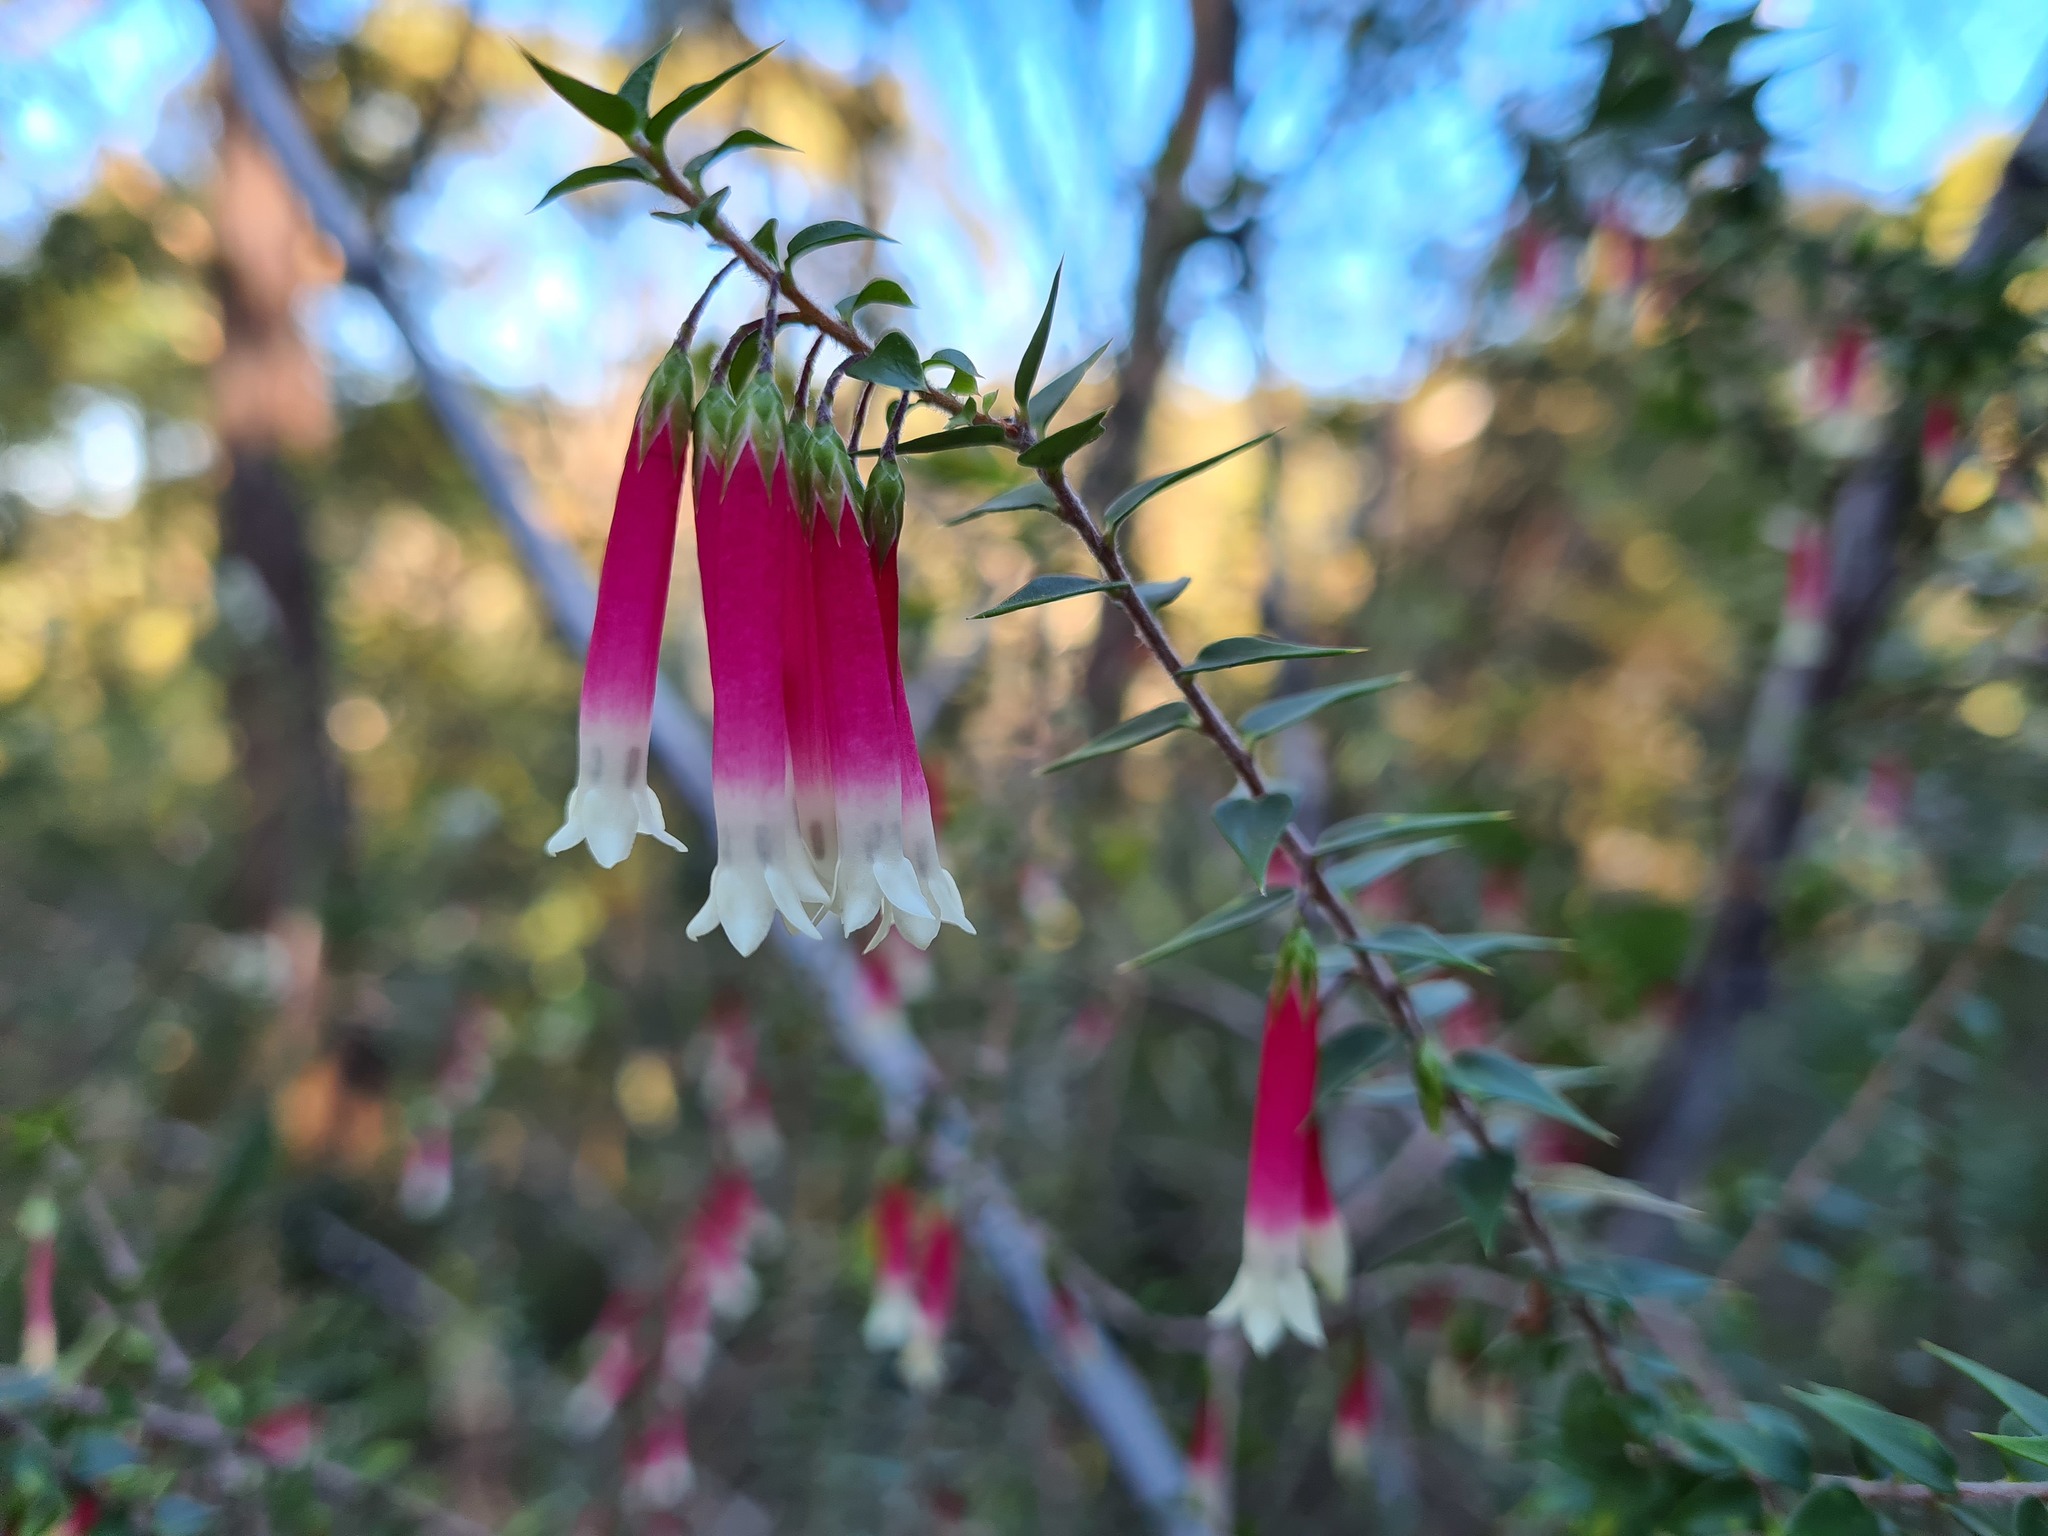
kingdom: Plantae
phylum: Tracheophyta
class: Magnoliopsida
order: Ericales
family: Ericaceae
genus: Epacris
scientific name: Epacris longiflora
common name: Fuchsia-heath
